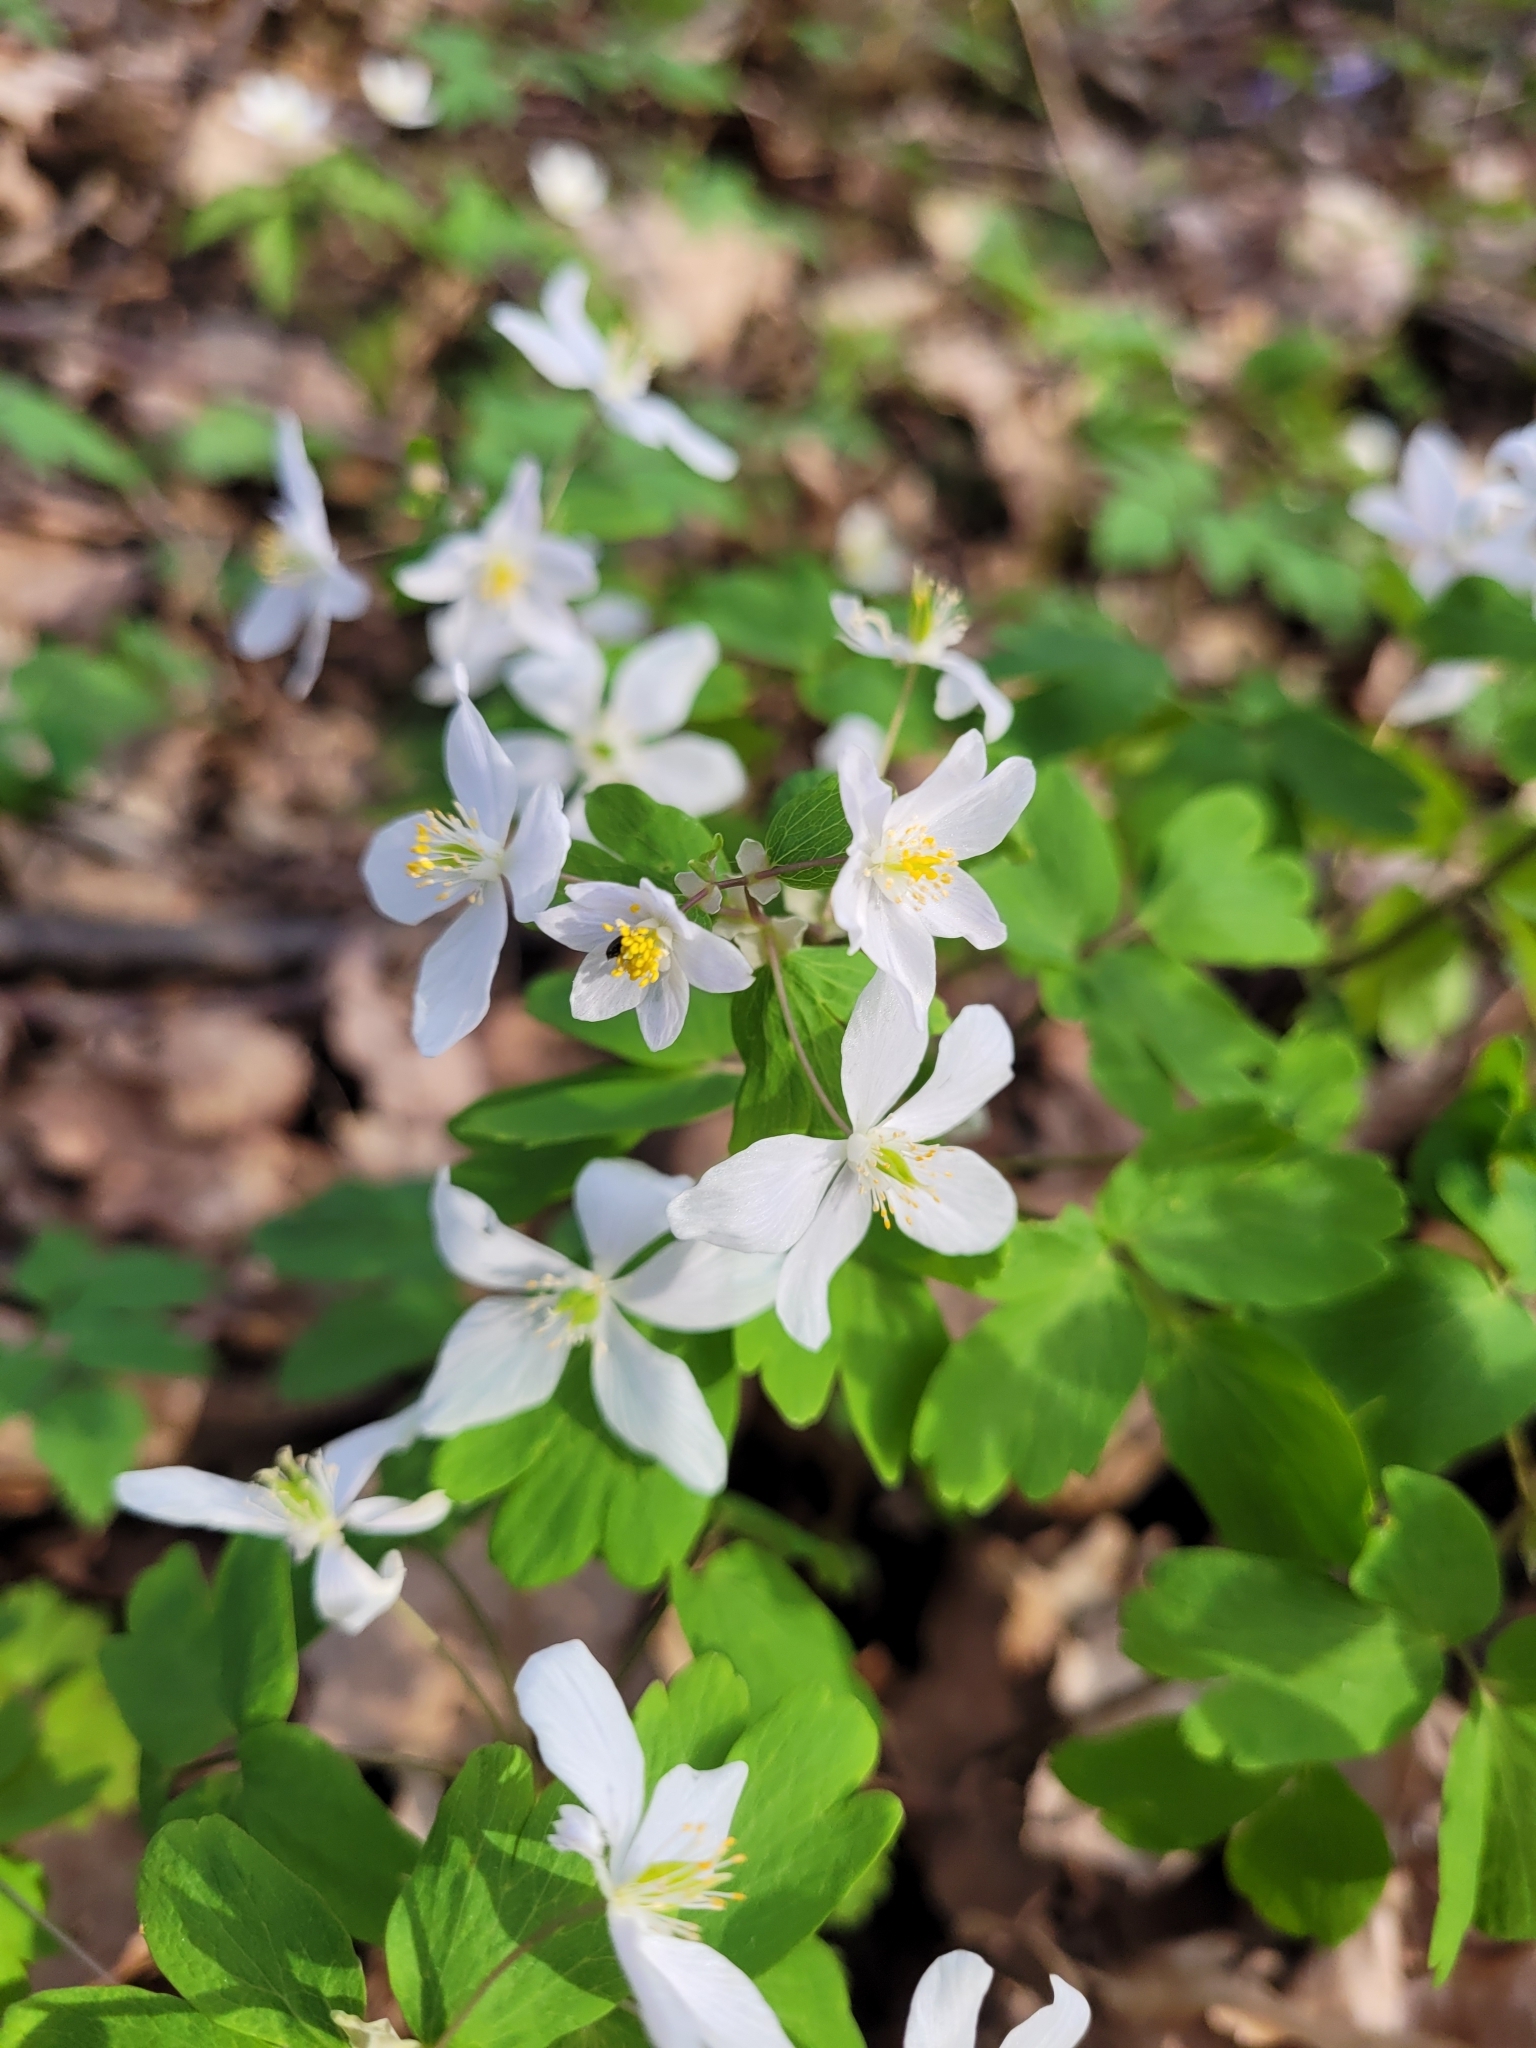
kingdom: Plantae
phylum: Tracheophyta
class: Magnoliopsida
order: Ranunculales
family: Ranunculaceae
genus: Isopyrum
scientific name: Isopyrum thalictroides
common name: Isopyrum
